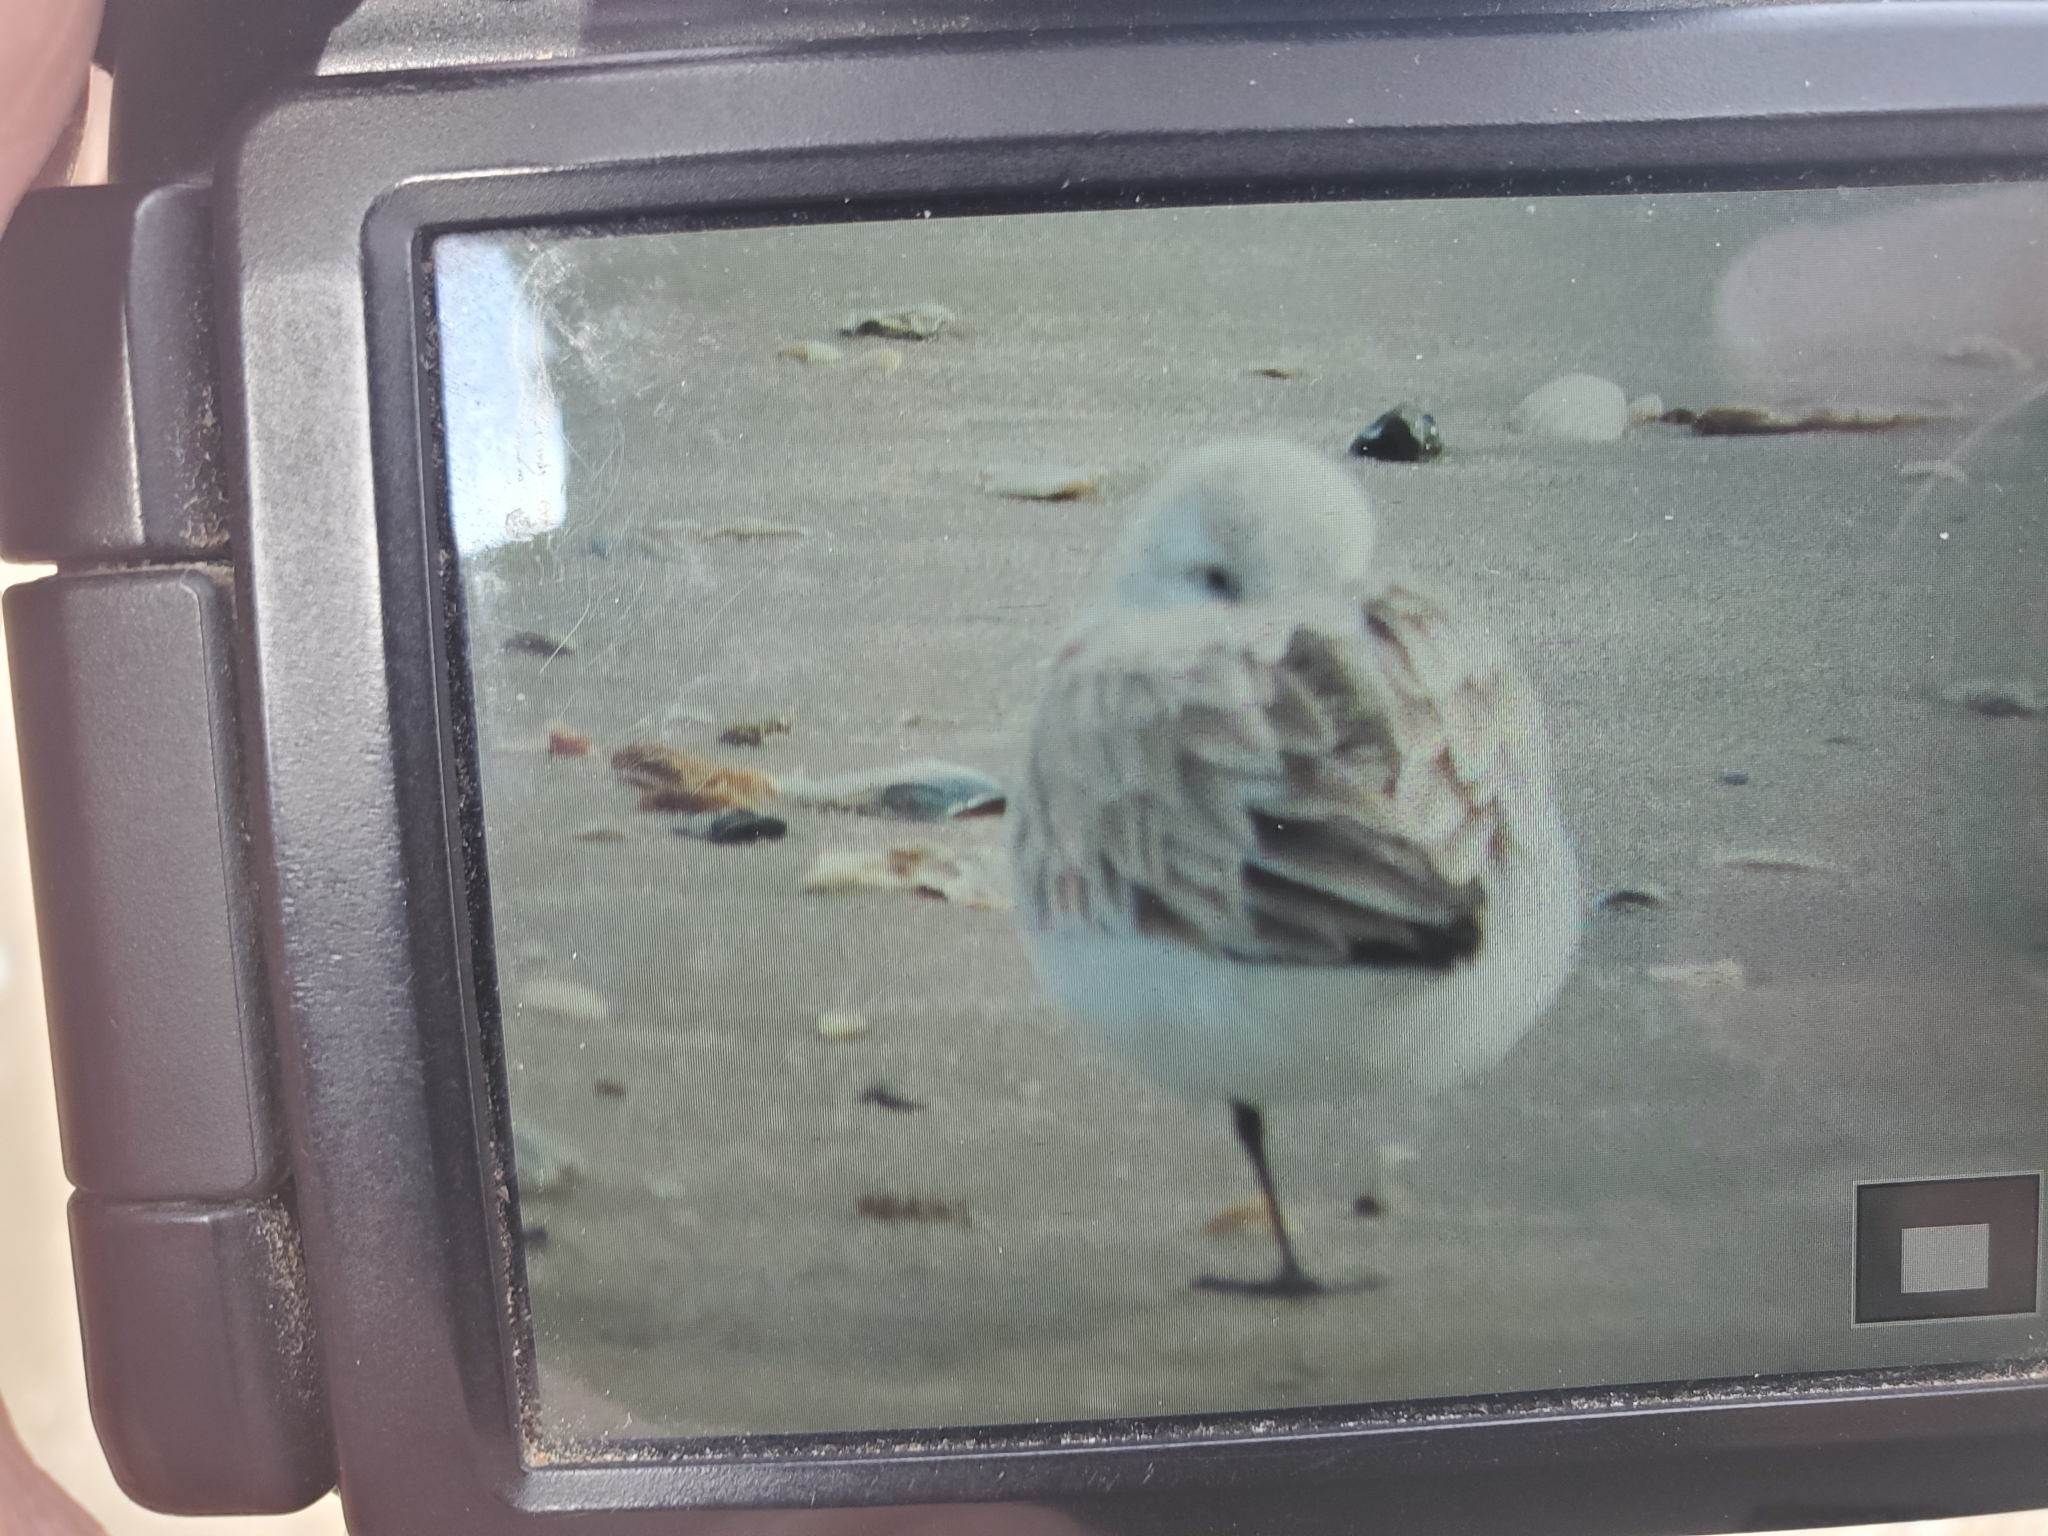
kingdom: Animalia
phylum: Chordata
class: Aves
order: Charadriiformes
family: Scolopacidae
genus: Calidris
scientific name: Calidris alba
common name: Sanderling
